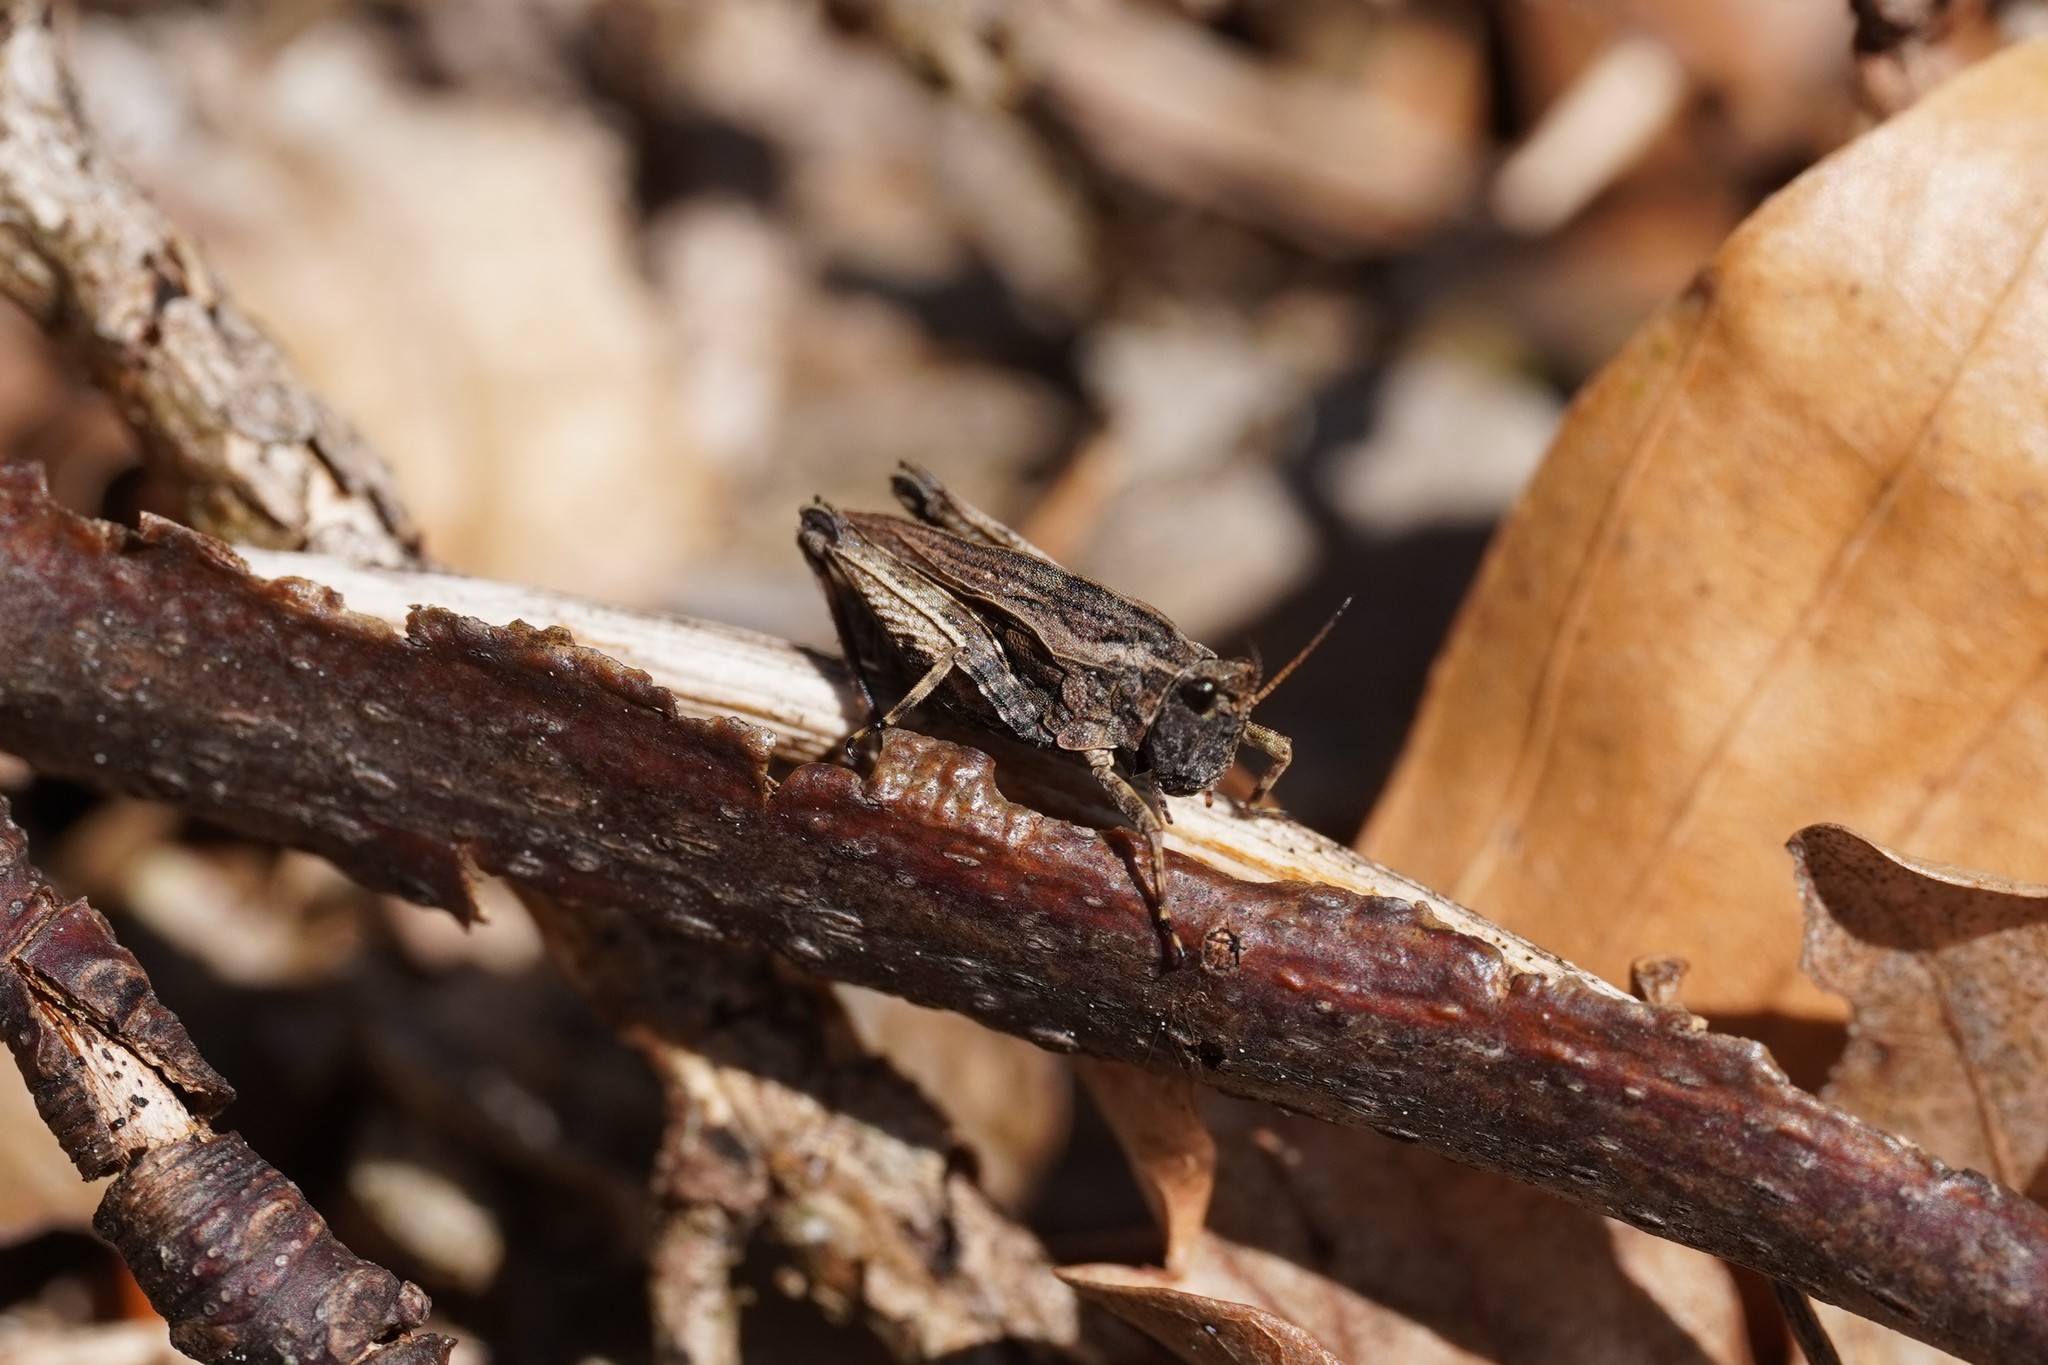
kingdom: Animalia
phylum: Arthropoda
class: Insecta
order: Orthoptera
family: Tetrigidae
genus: Tetrix
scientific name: Tetrix undulata
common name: Common groundhopper
